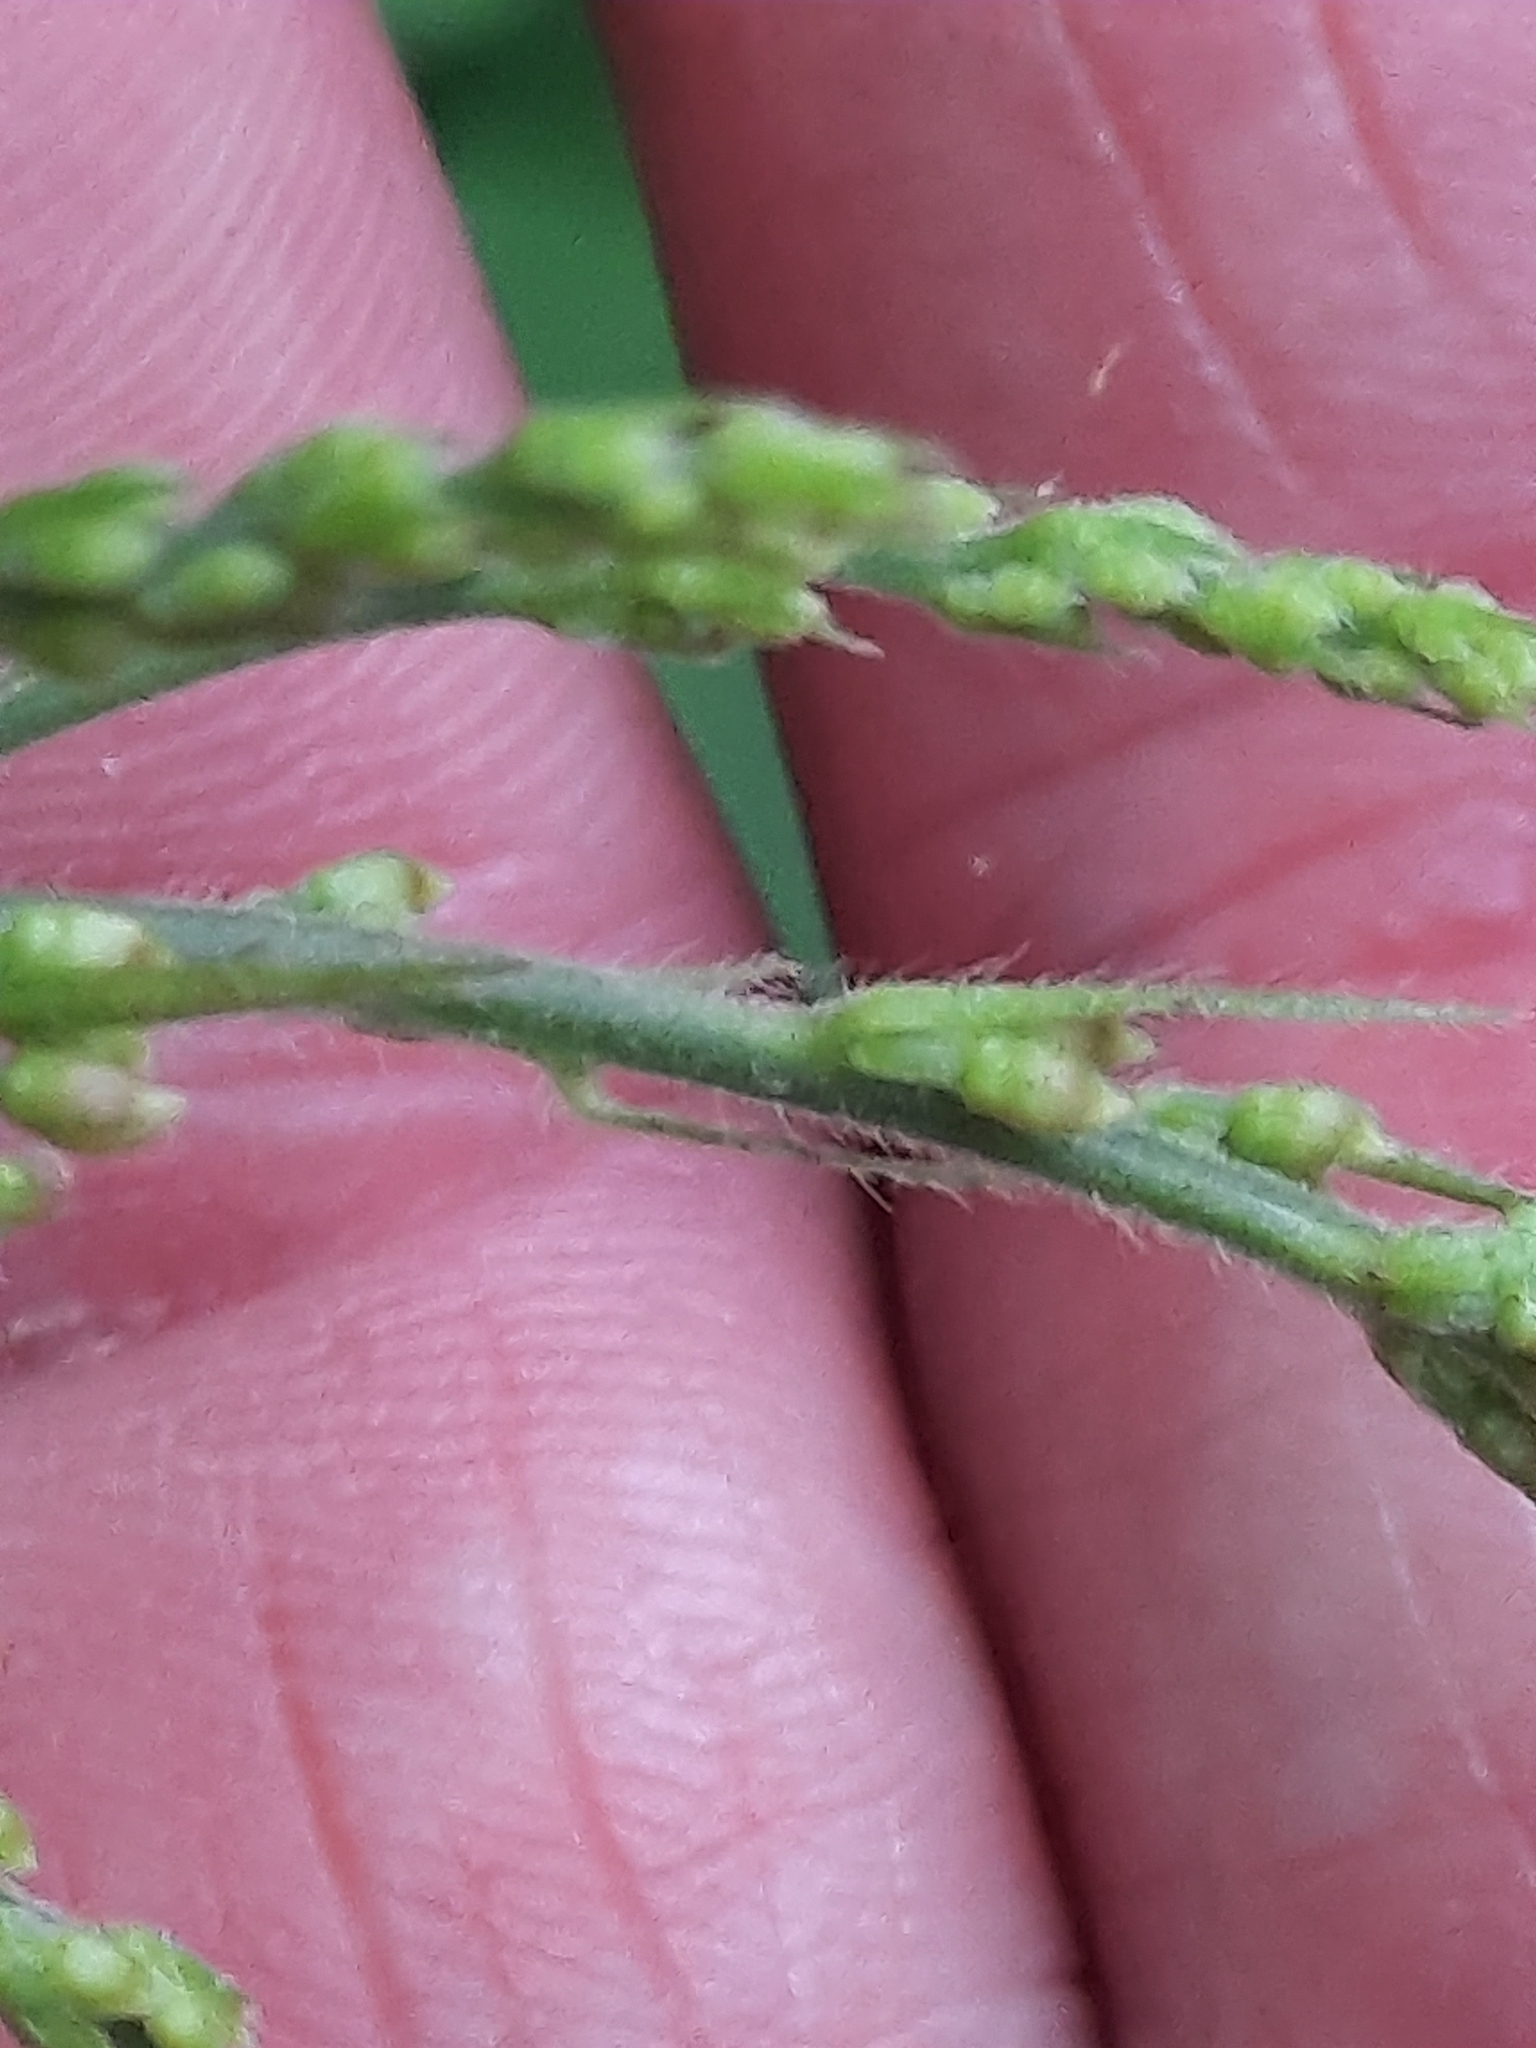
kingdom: Plantae
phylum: Tracheophyta
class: Magnoliopsida
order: Fabales
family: Fabaceae
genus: Hylodesmum
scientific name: Hylodesmum glutinosum
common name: Clustered-leaved tick-trefoil
